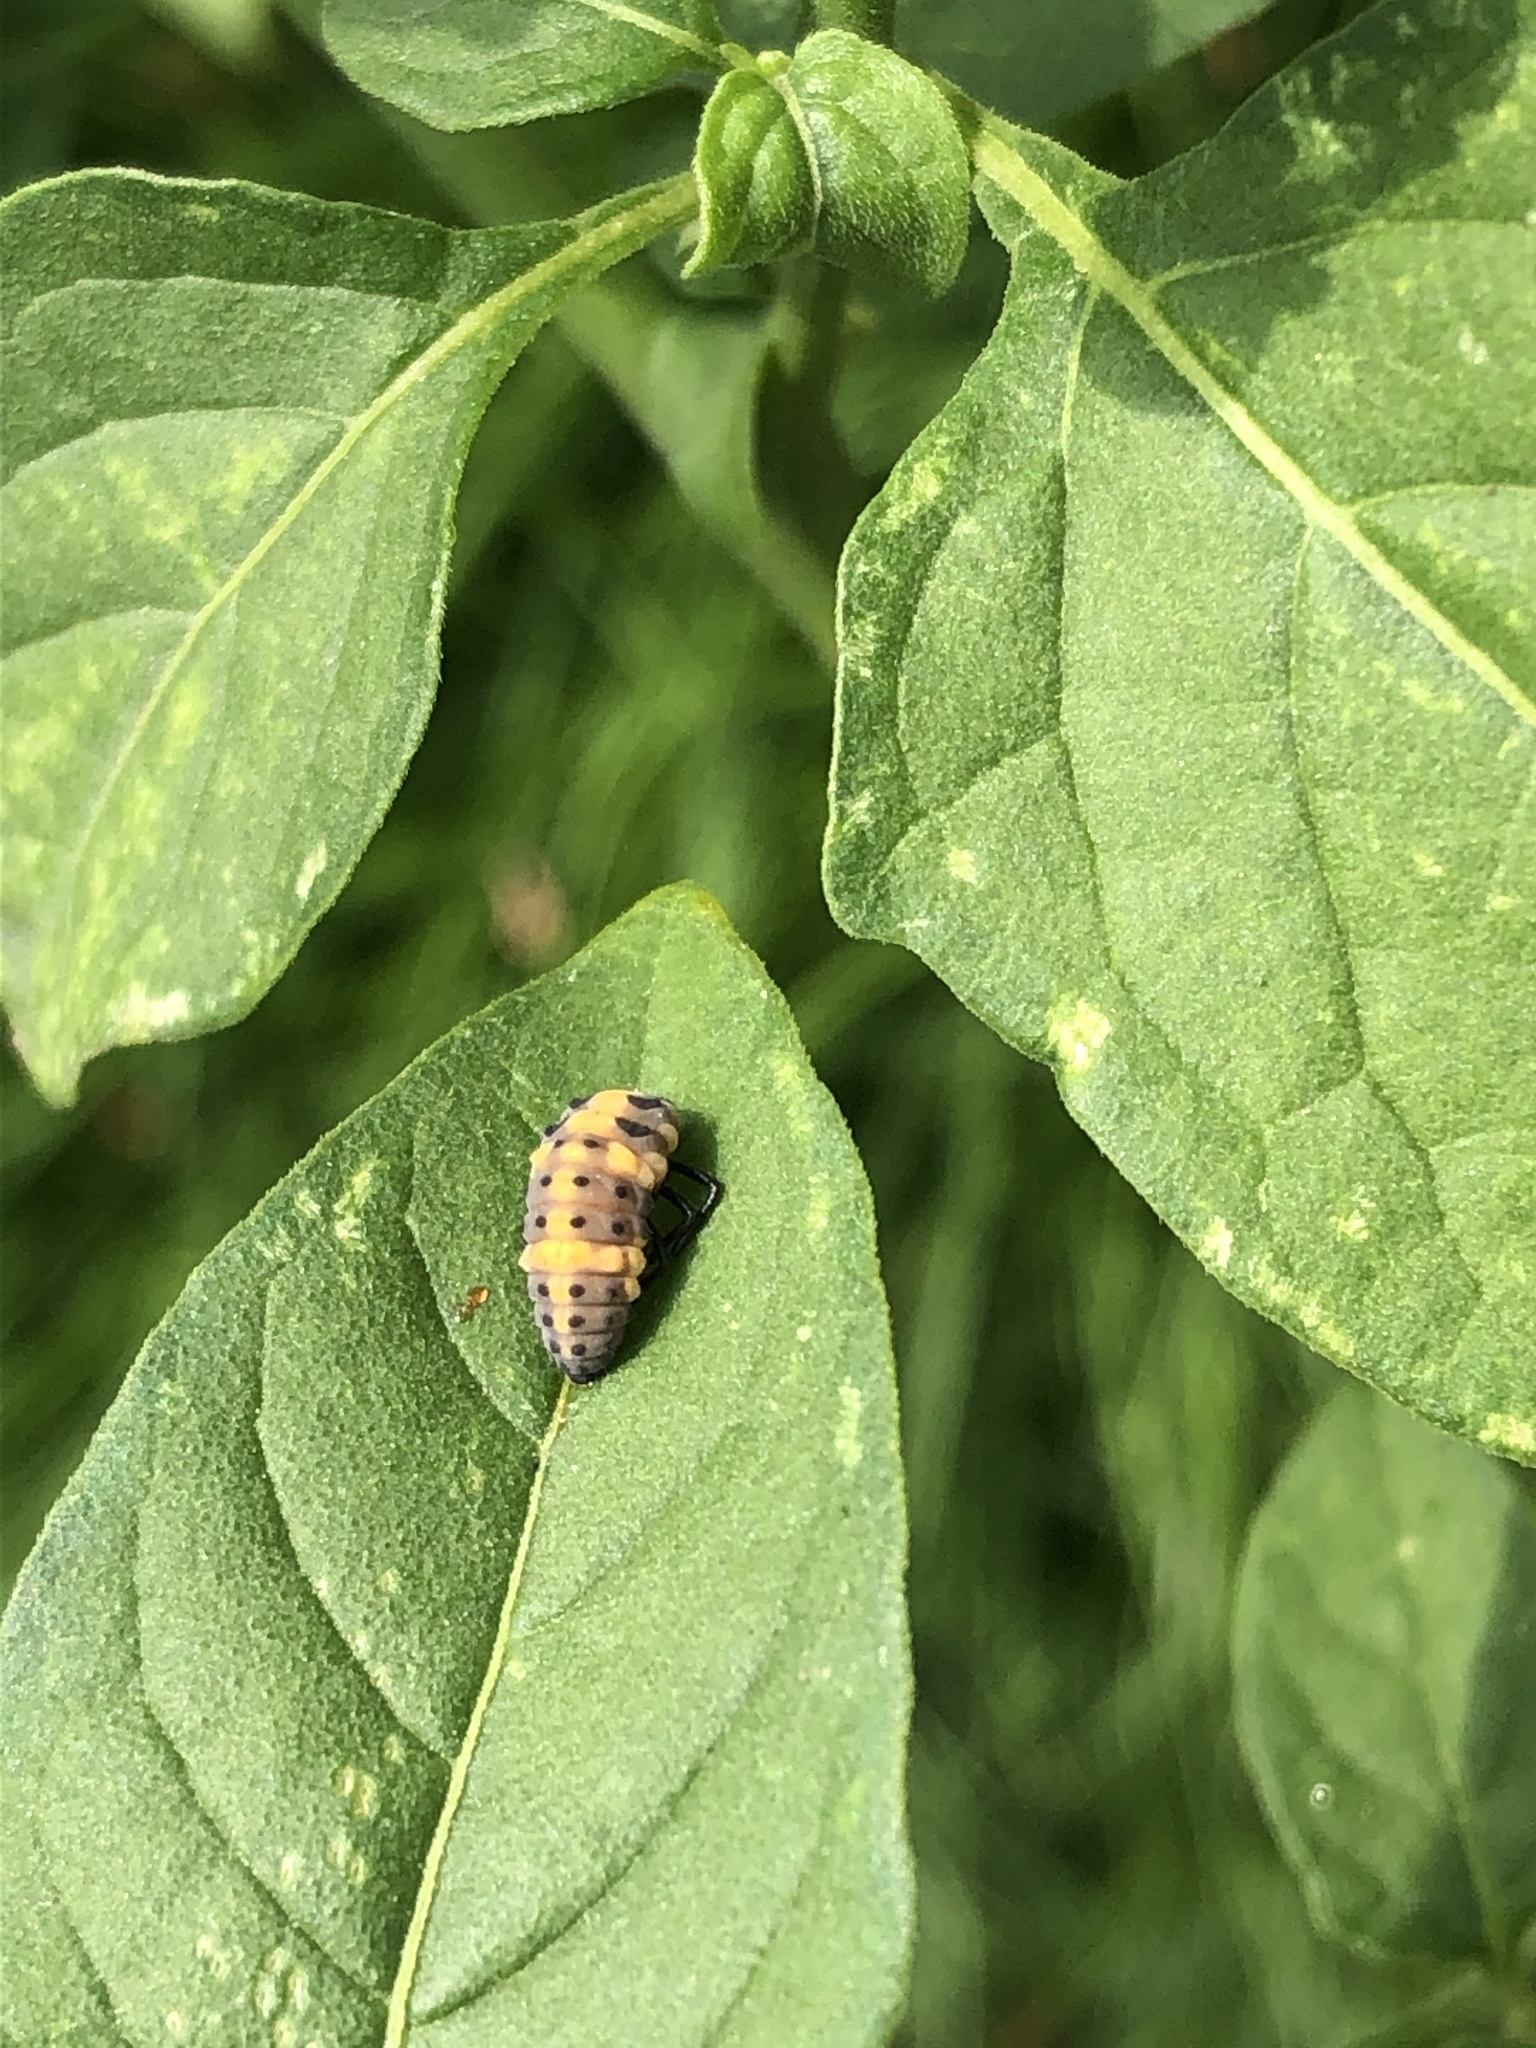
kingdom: Animalia
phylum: Arthropoda
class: Insecta
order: Coleoptera
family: Coccinellidae
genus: Cycloneda
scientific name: Cycloneda sanguinea
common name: Ladybird beetle
